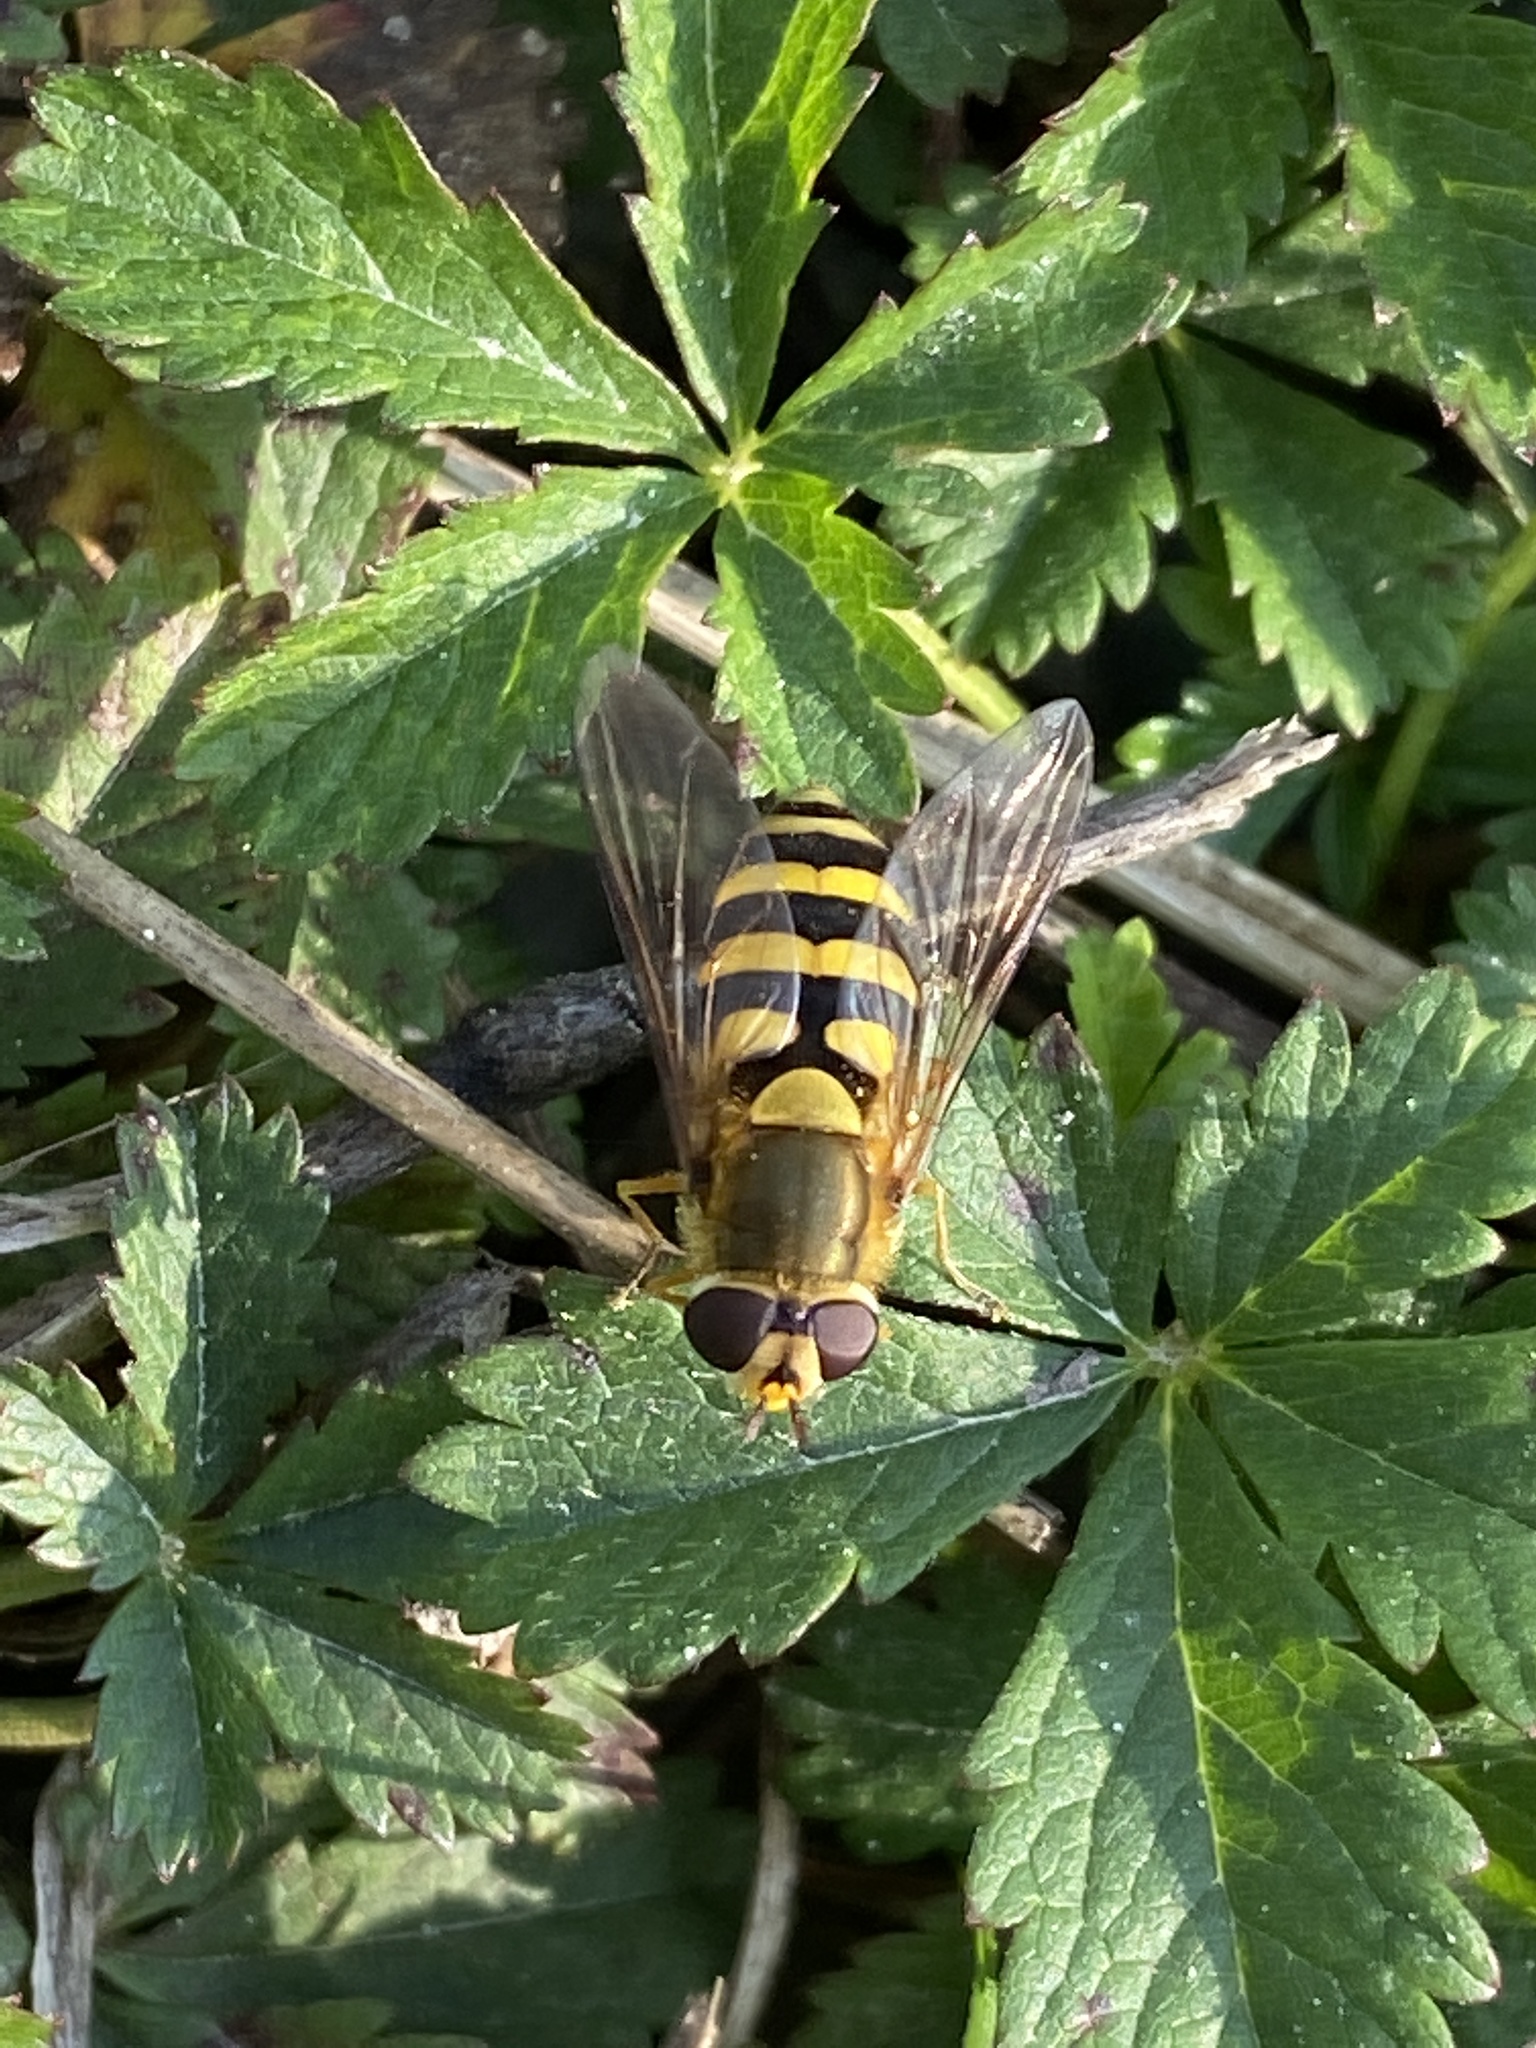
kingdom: Animalia
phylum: Arthropoda
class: Insecta
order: Diptera
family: Syrphidae
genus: Syrphus
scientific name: Syrphus
